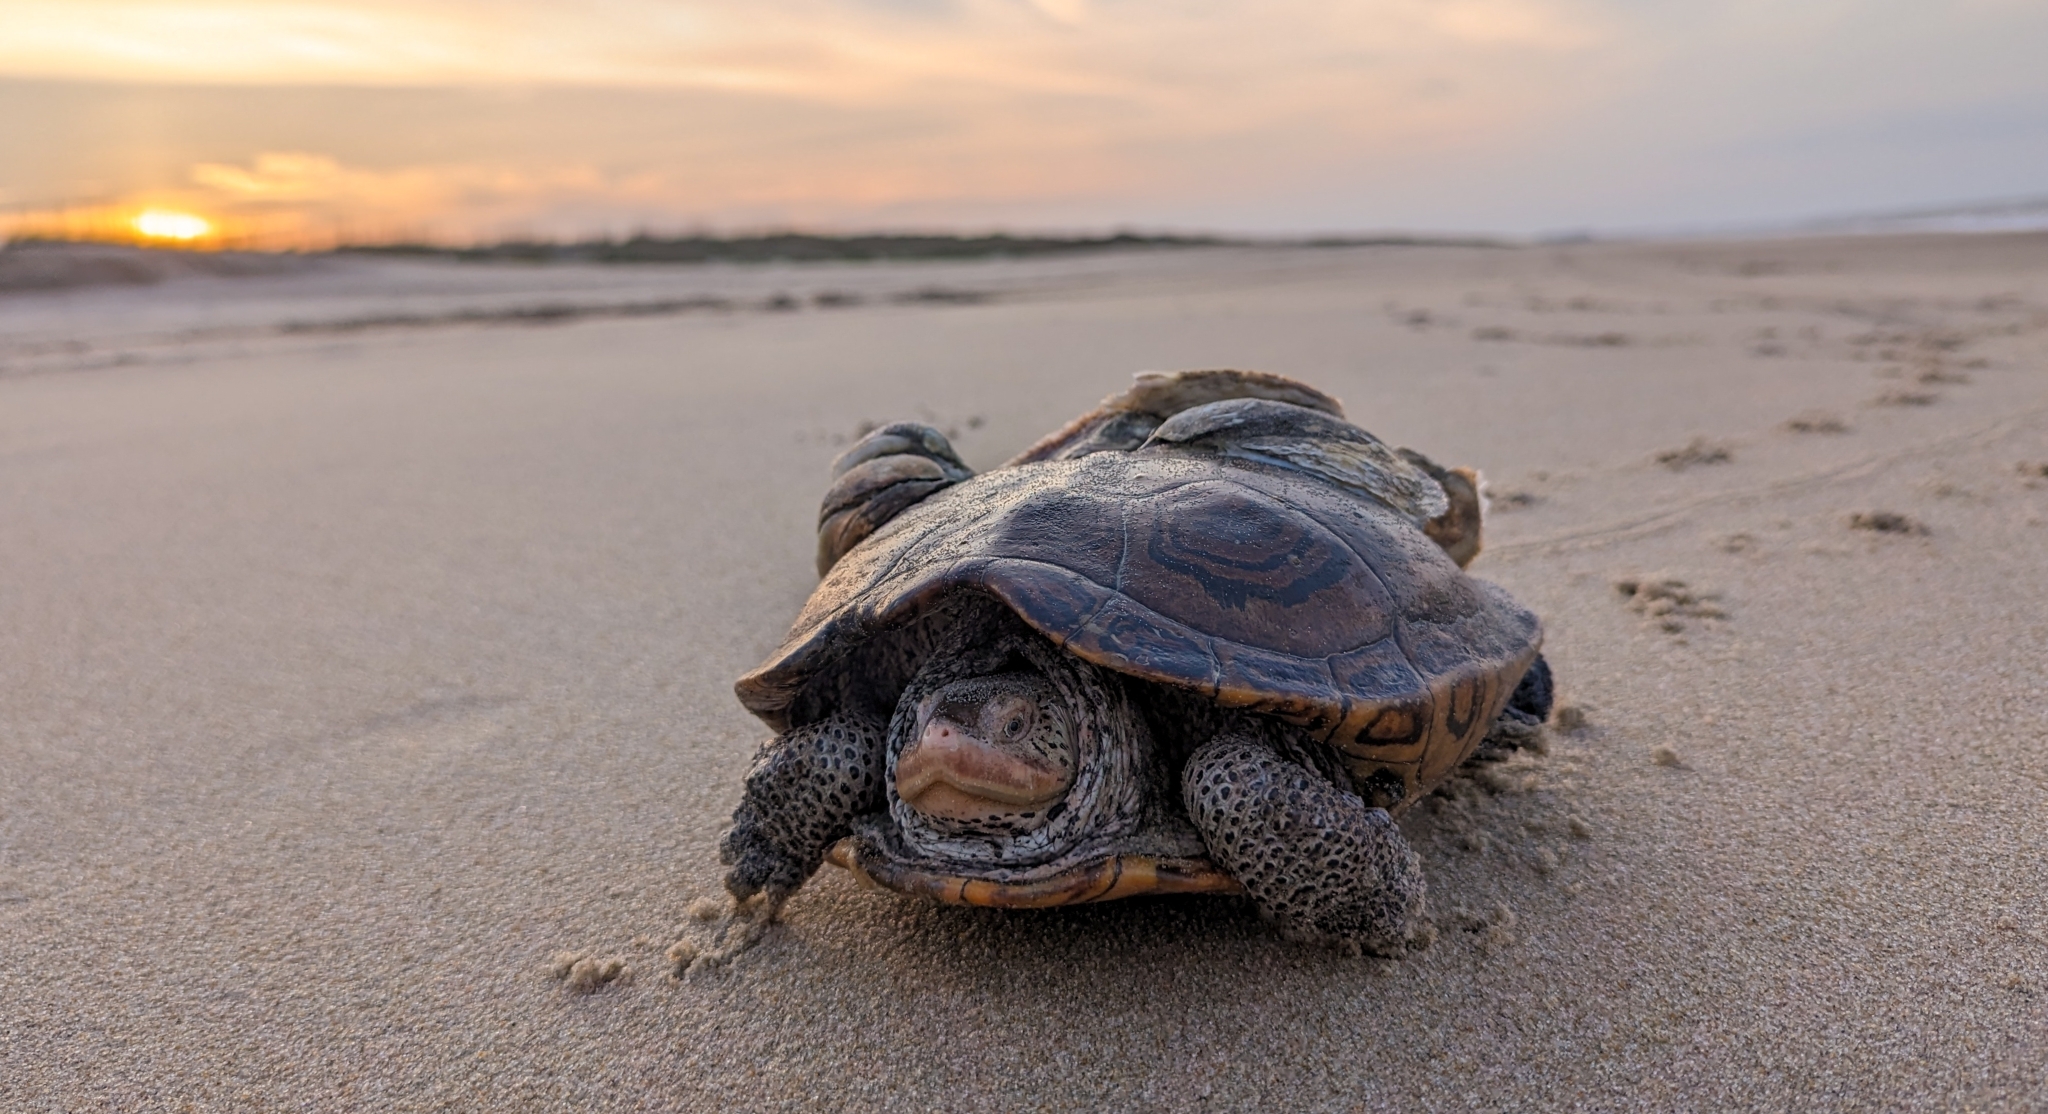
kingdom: Animalia
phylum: Chordata
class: Testudines
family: Emydidae
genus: Malaclemys
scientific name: Malaclemys terrapin
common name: Diamondback terrapin
